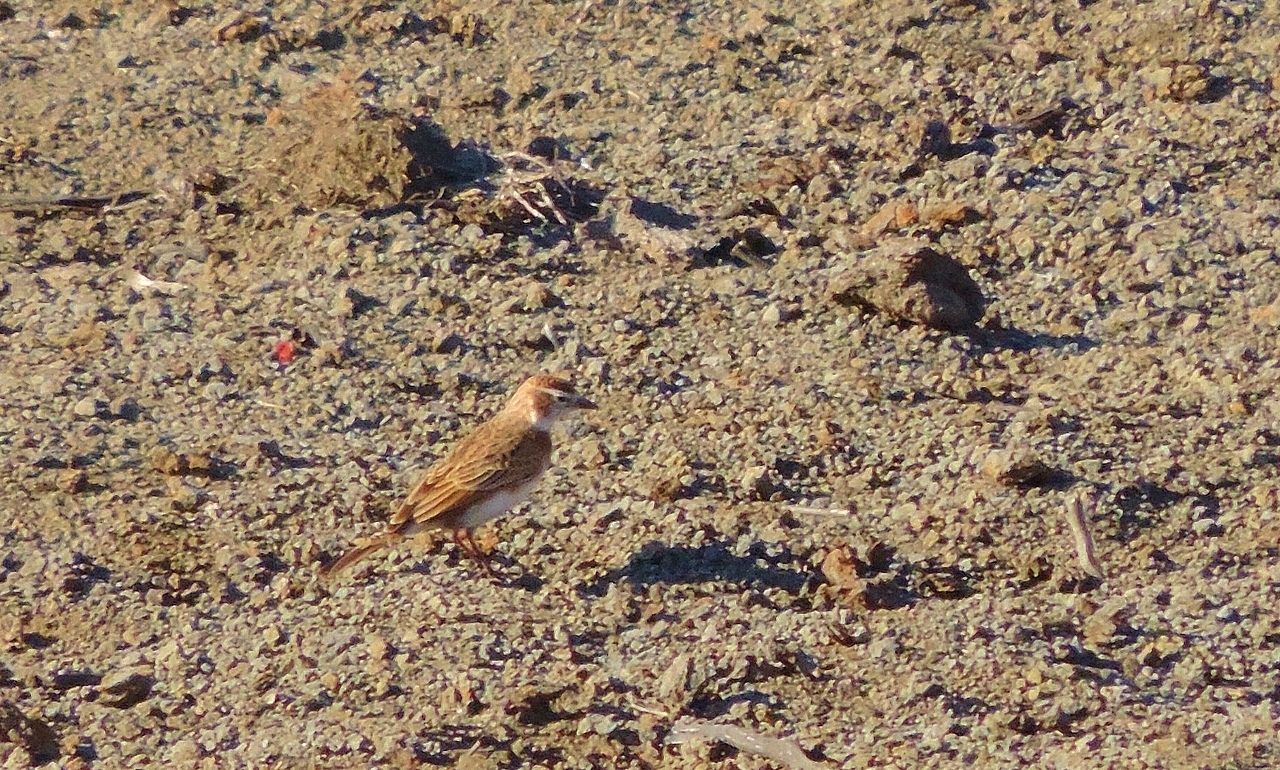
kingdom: Animalia
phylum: Chordata
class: Aves
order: Passeriformes
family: Alaudidae
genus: Calandrella
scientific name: Calandrella cinerea
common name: Red-capped lark
